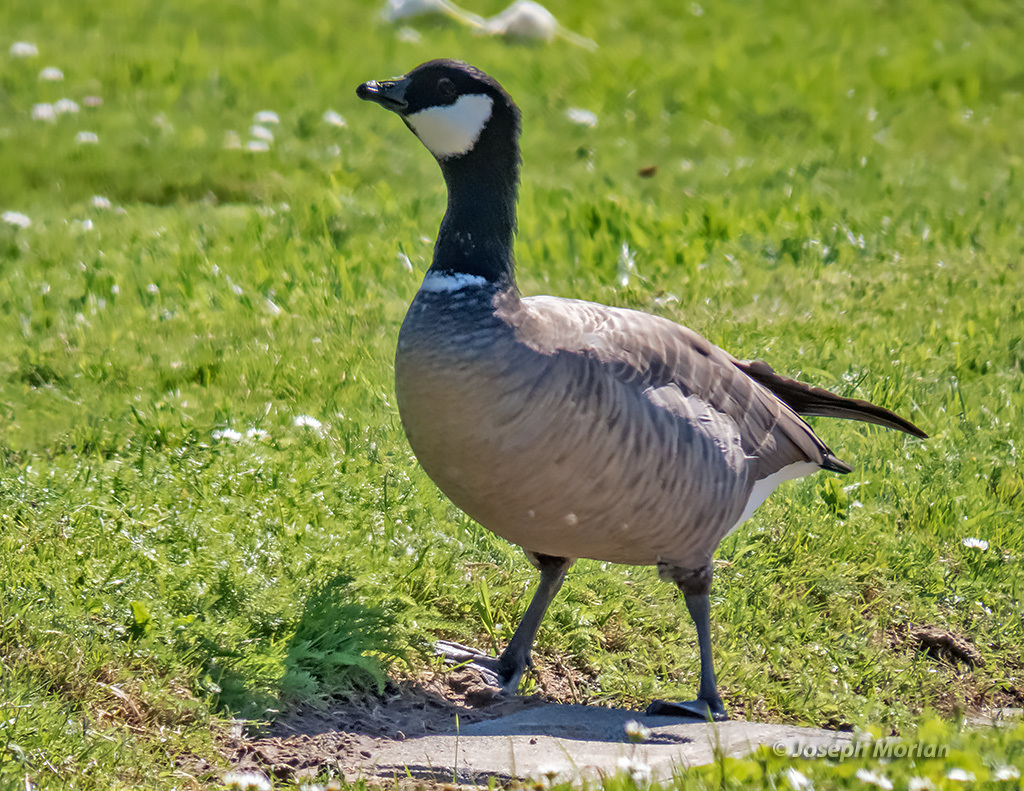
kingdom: Animalia
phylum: Chordata
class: Aves
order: Anseriformes
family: Anatidae
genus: Branta
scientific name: Branta hutchinsii
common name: Cackling goose
